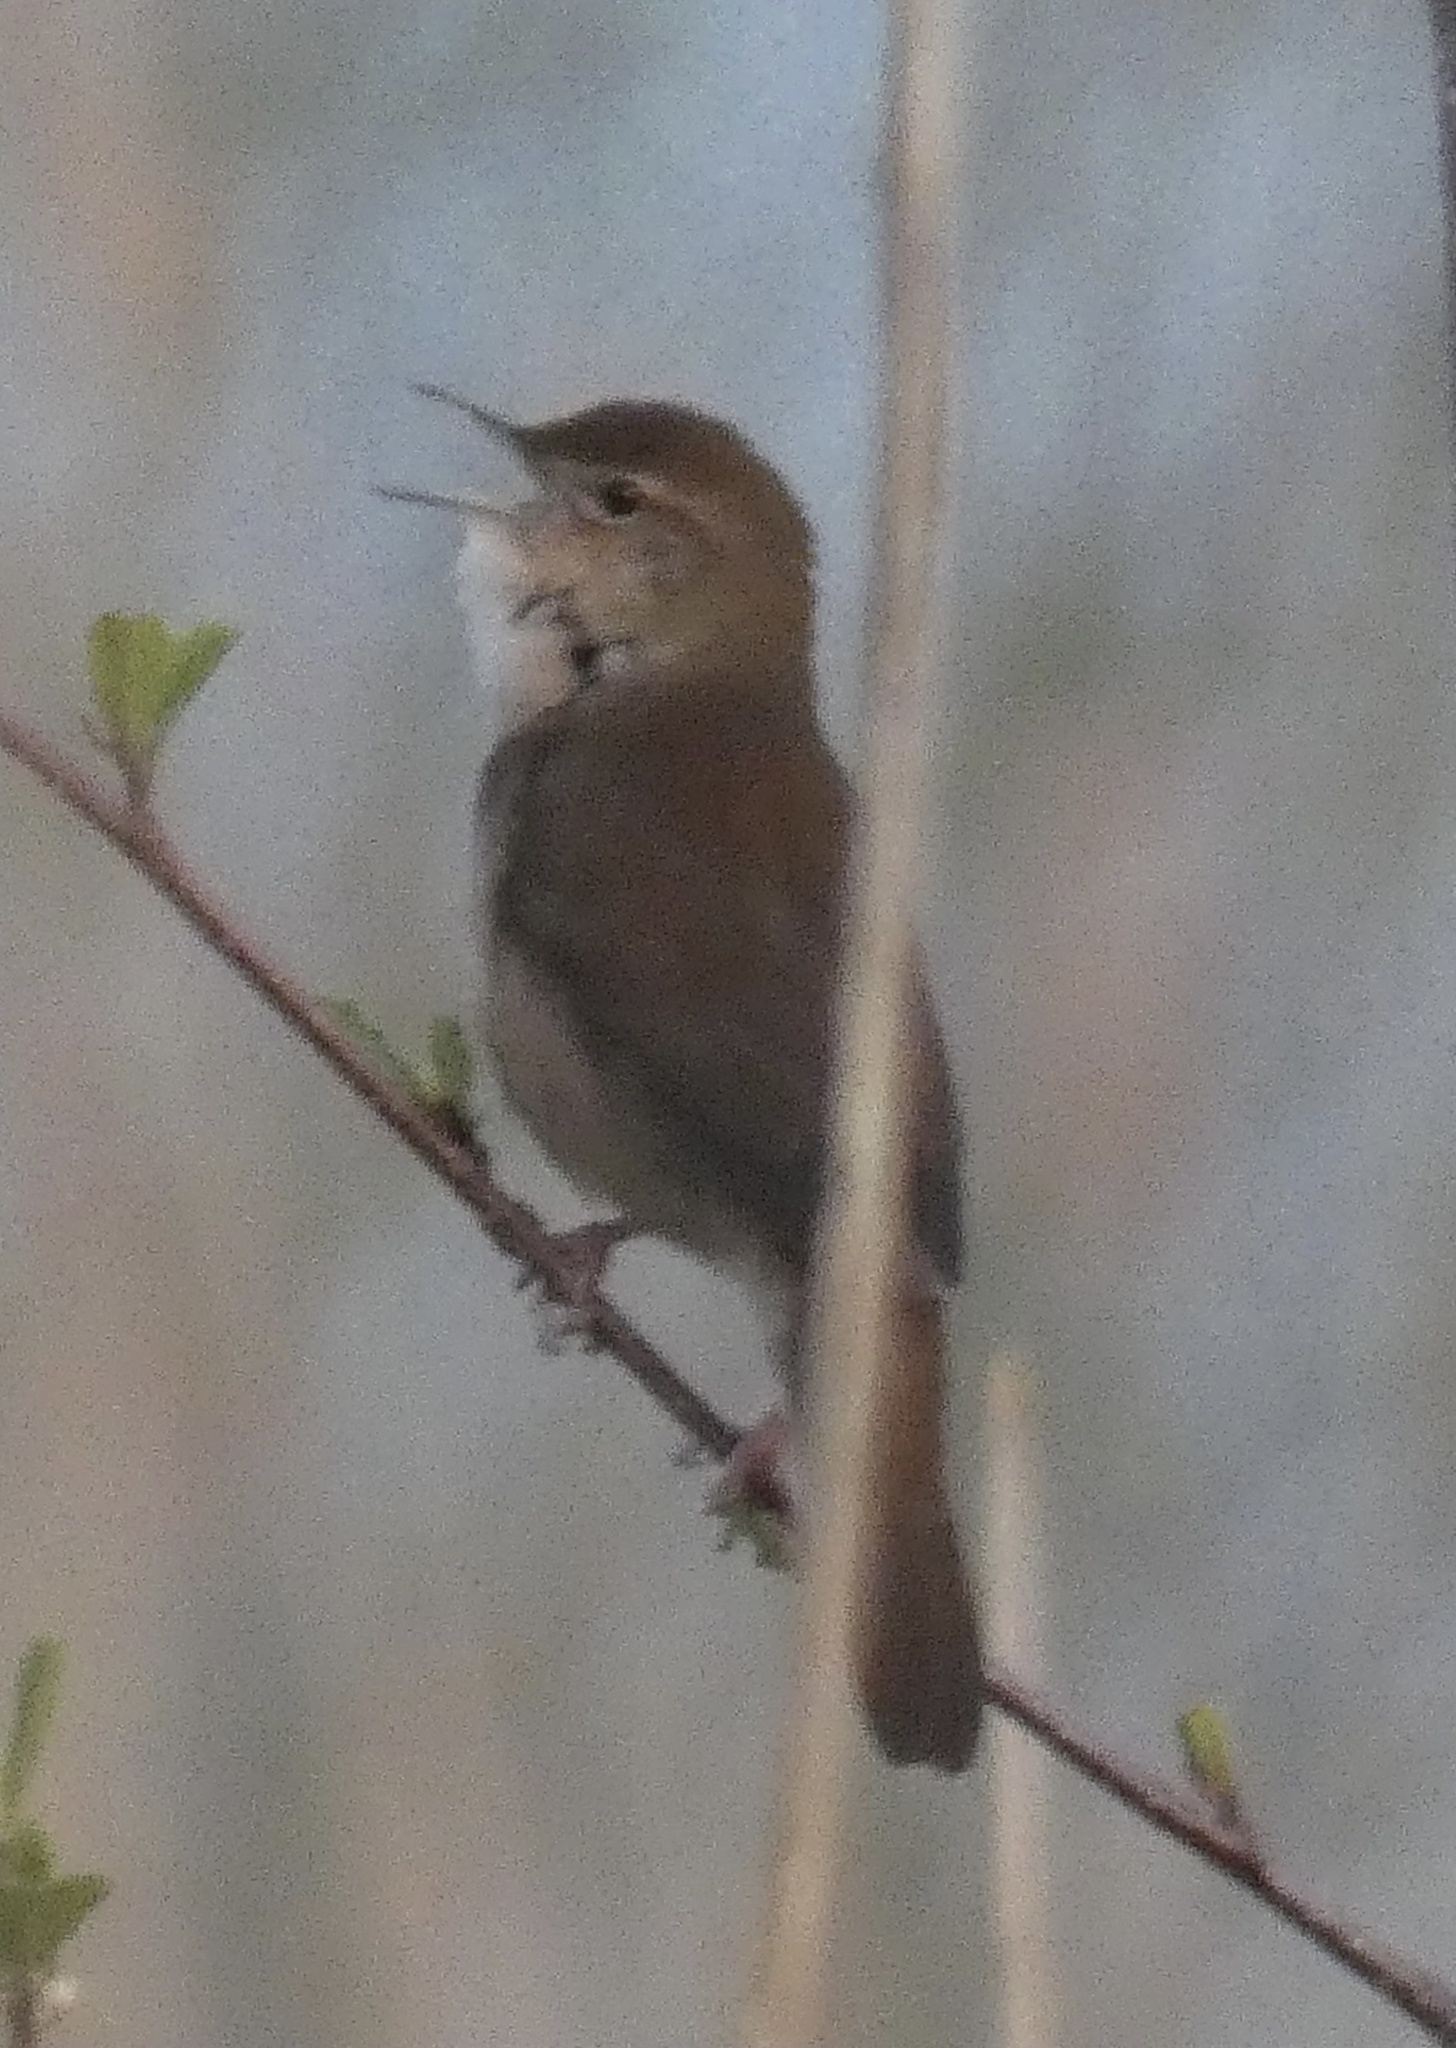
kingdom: Animalia
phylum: Chordata
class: Aves
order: Passeriformes
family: Locustellidae
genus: Locustella
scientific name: Locustella luscinioides
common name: Savi's warbler
